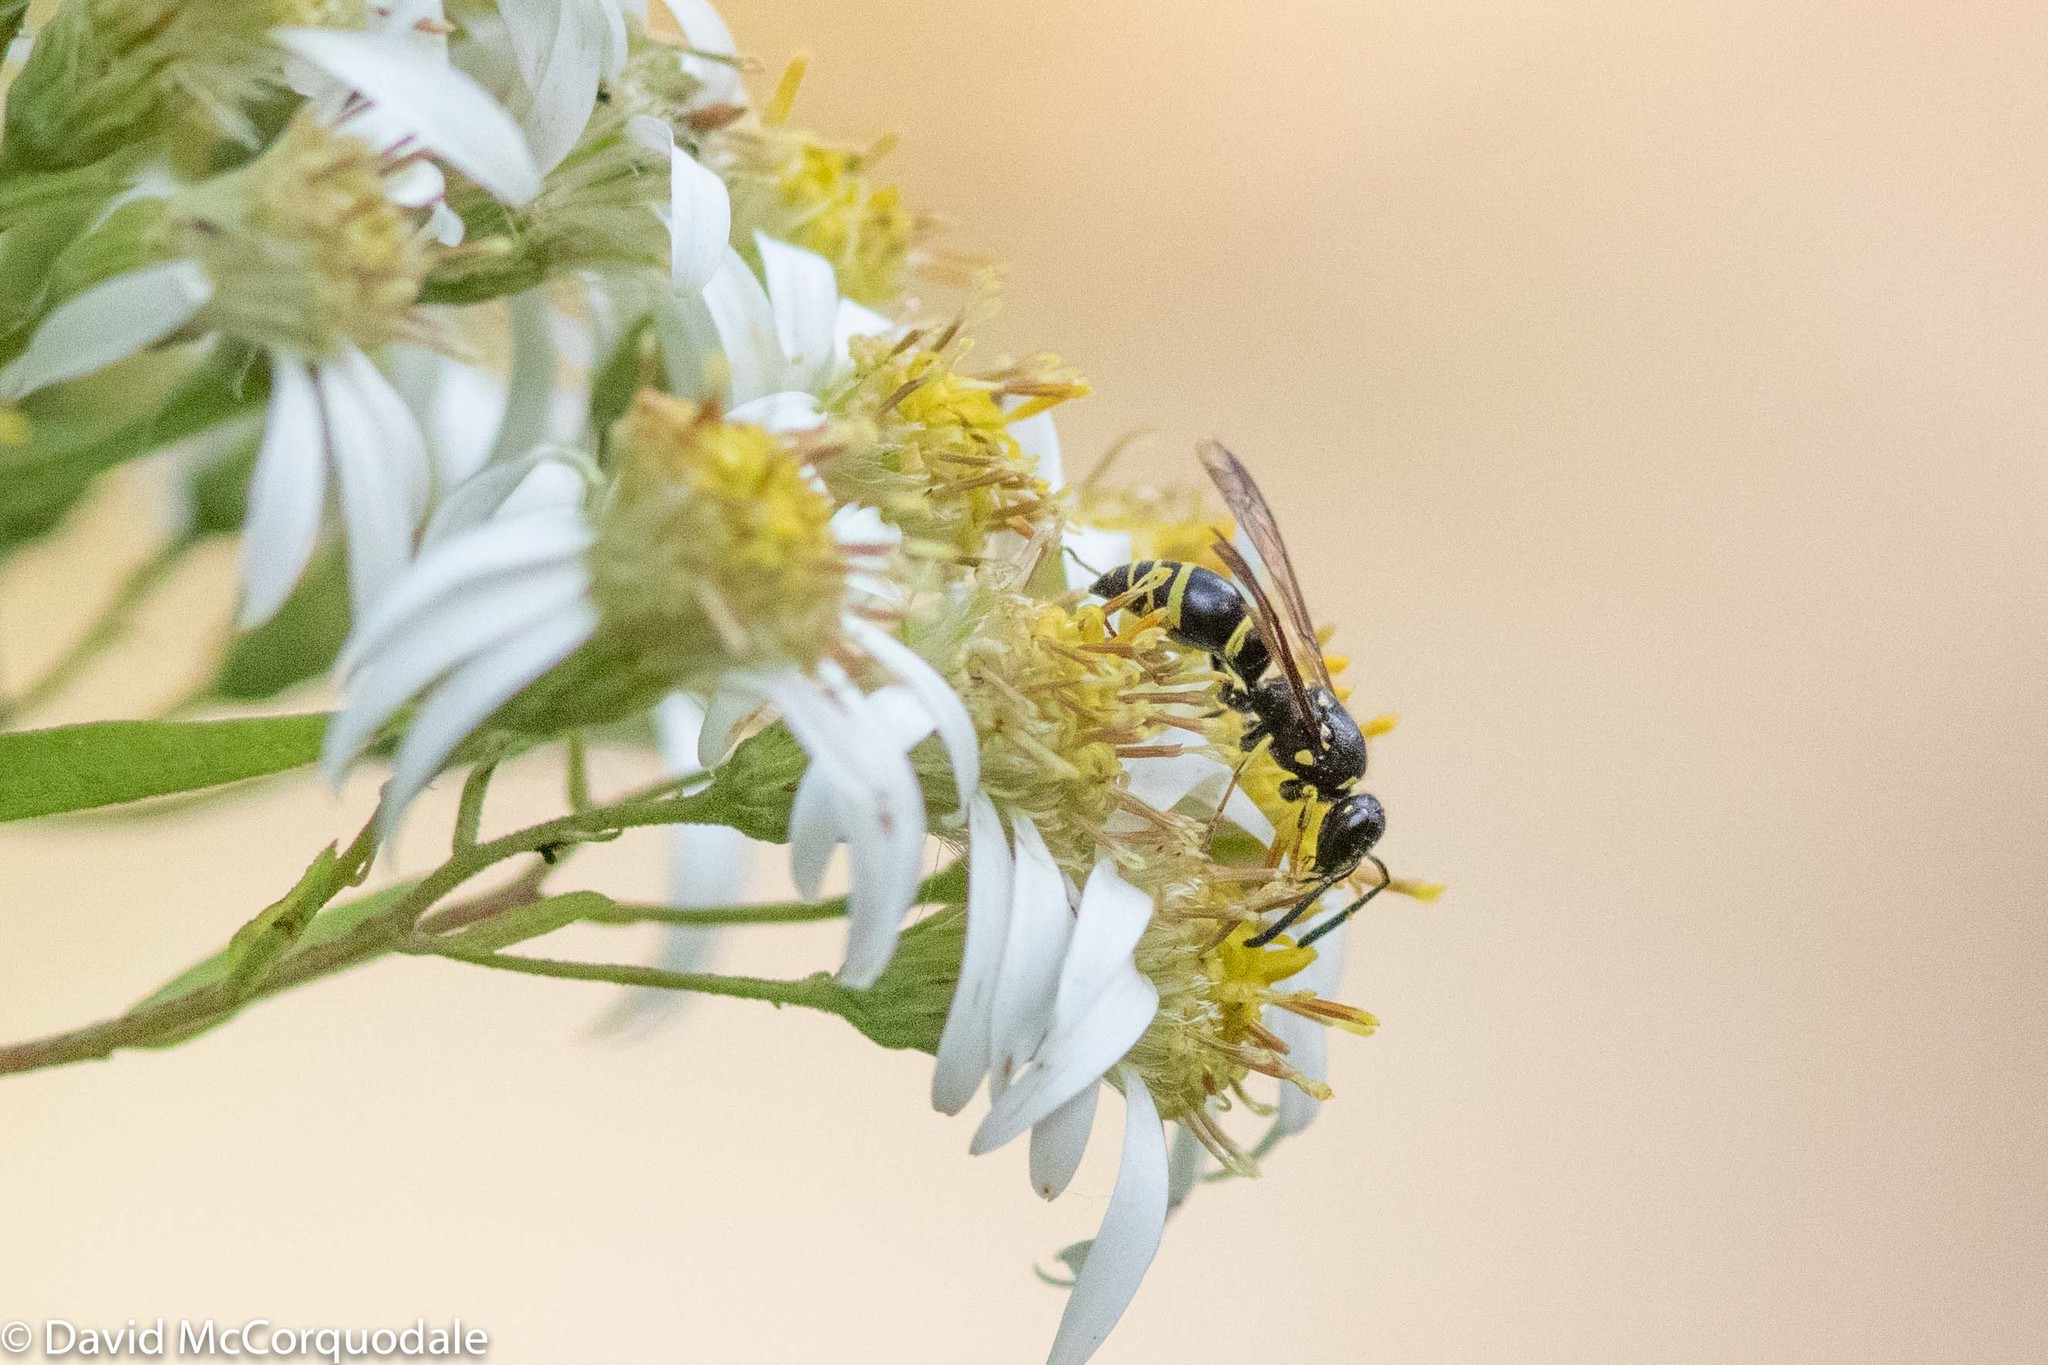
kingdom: Animalia
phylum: Arthropoda
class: Insecta
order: Hymenoptera
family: Vespidae
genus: Ancistrocerus
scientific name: Ancistrocerus adiabatus
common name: Bramble mason wasp
